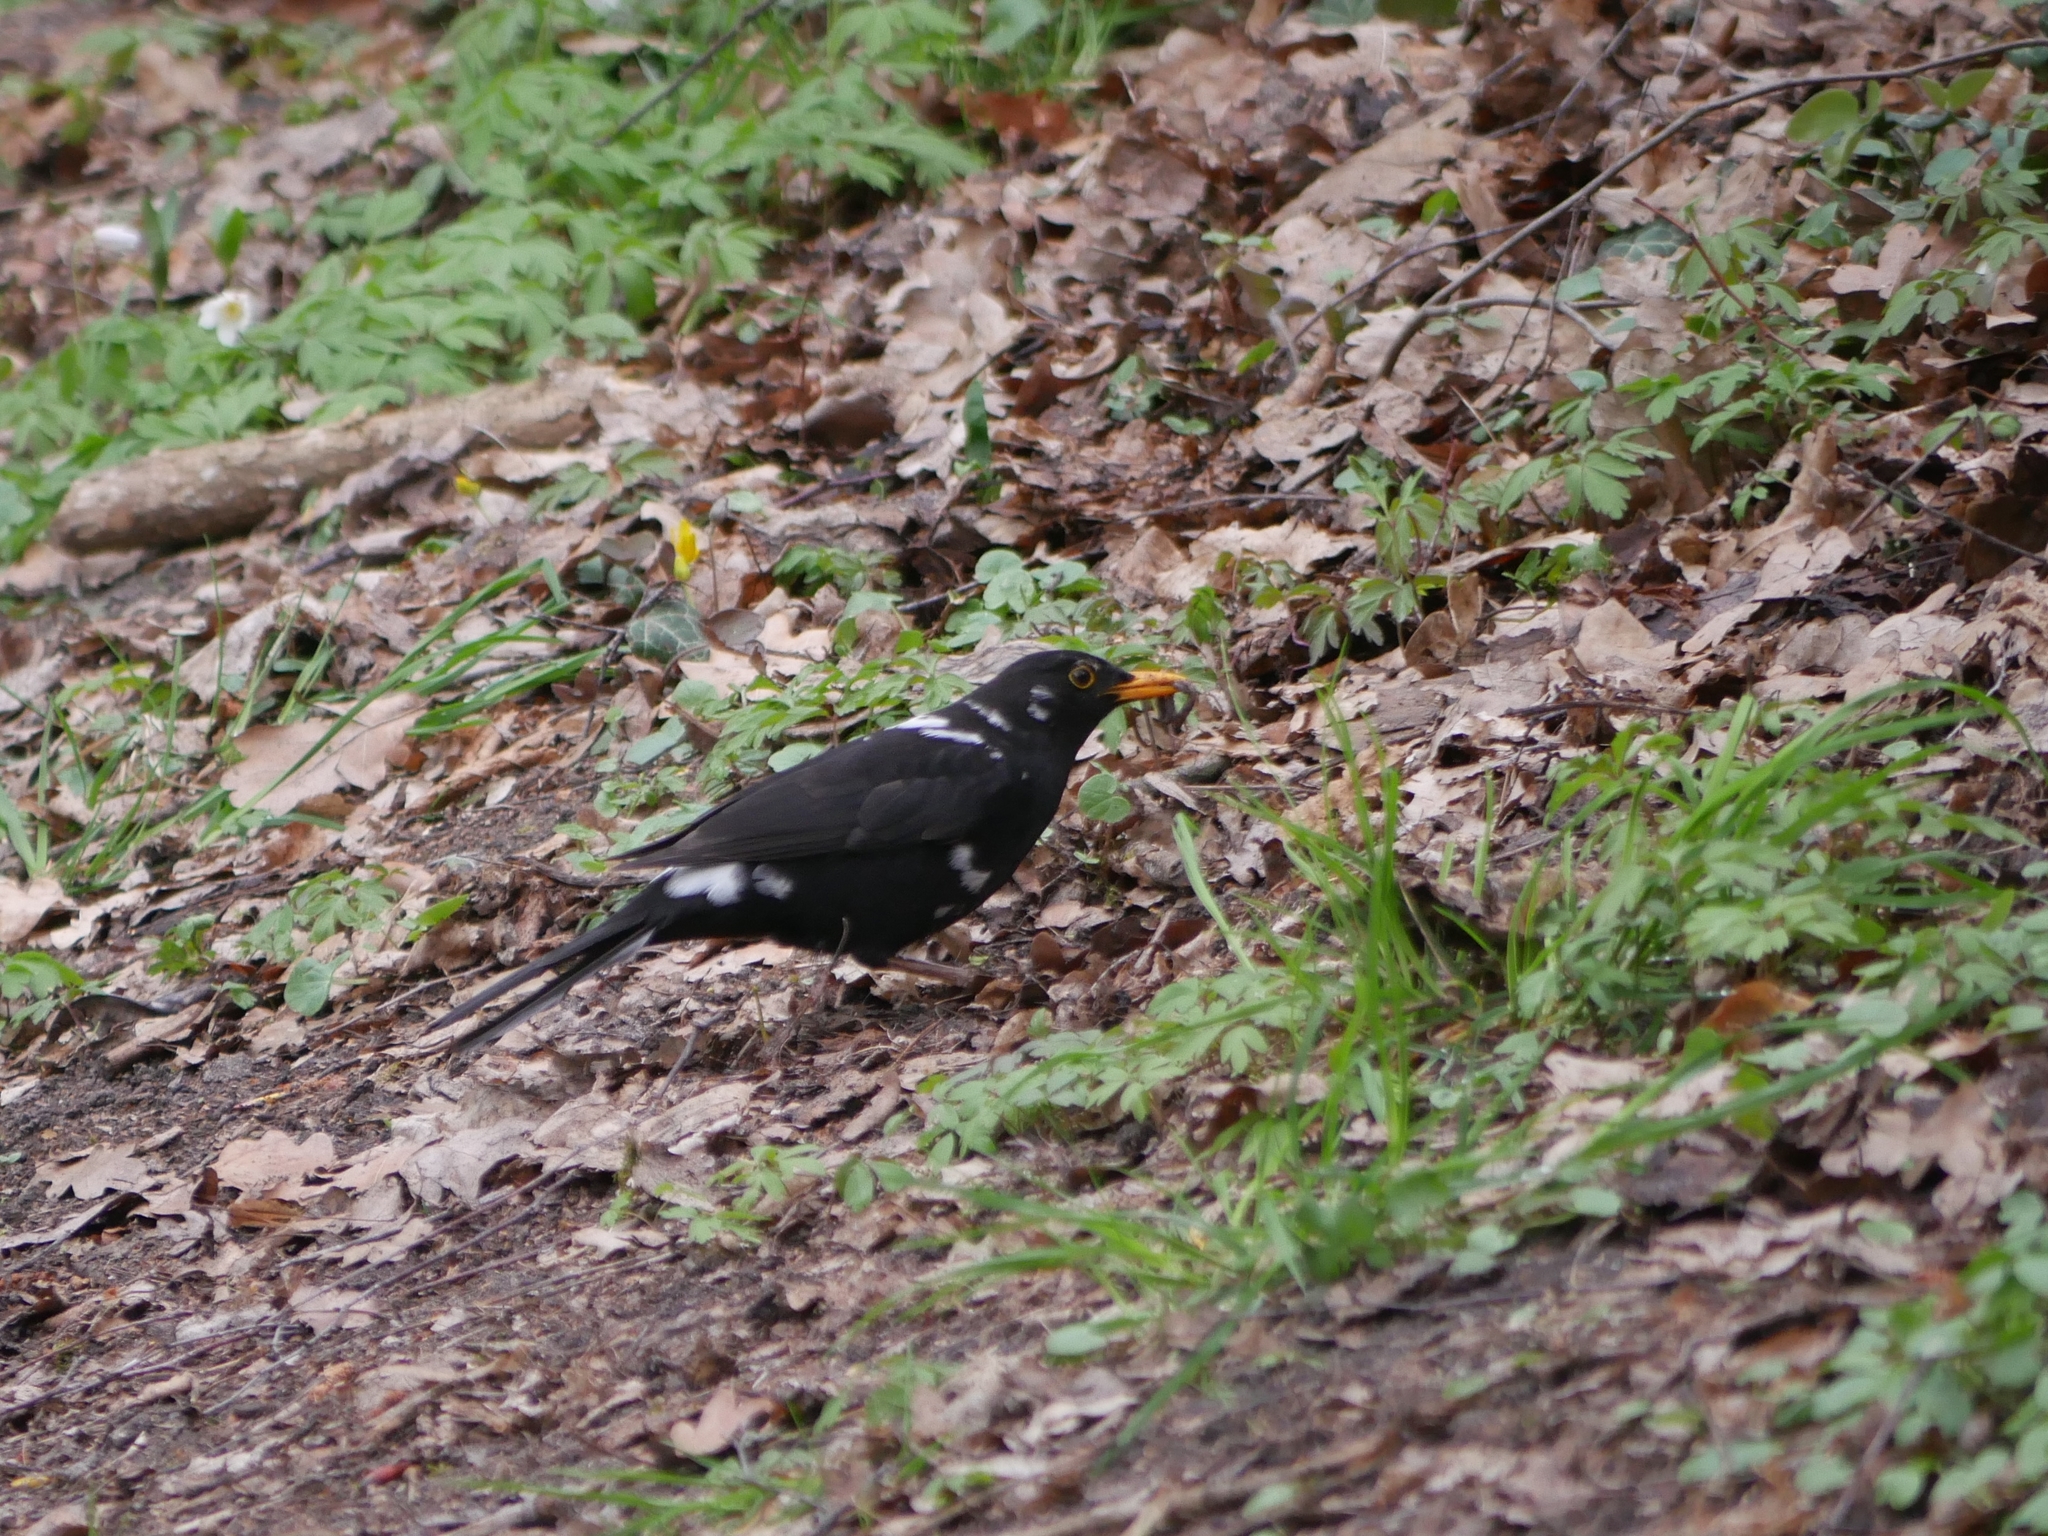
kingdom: Animalia
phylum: Chordata
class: Aves
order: Passeriformes
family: Turdidae
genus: Turdus
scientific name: Turdus merula
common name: Common blackbird
